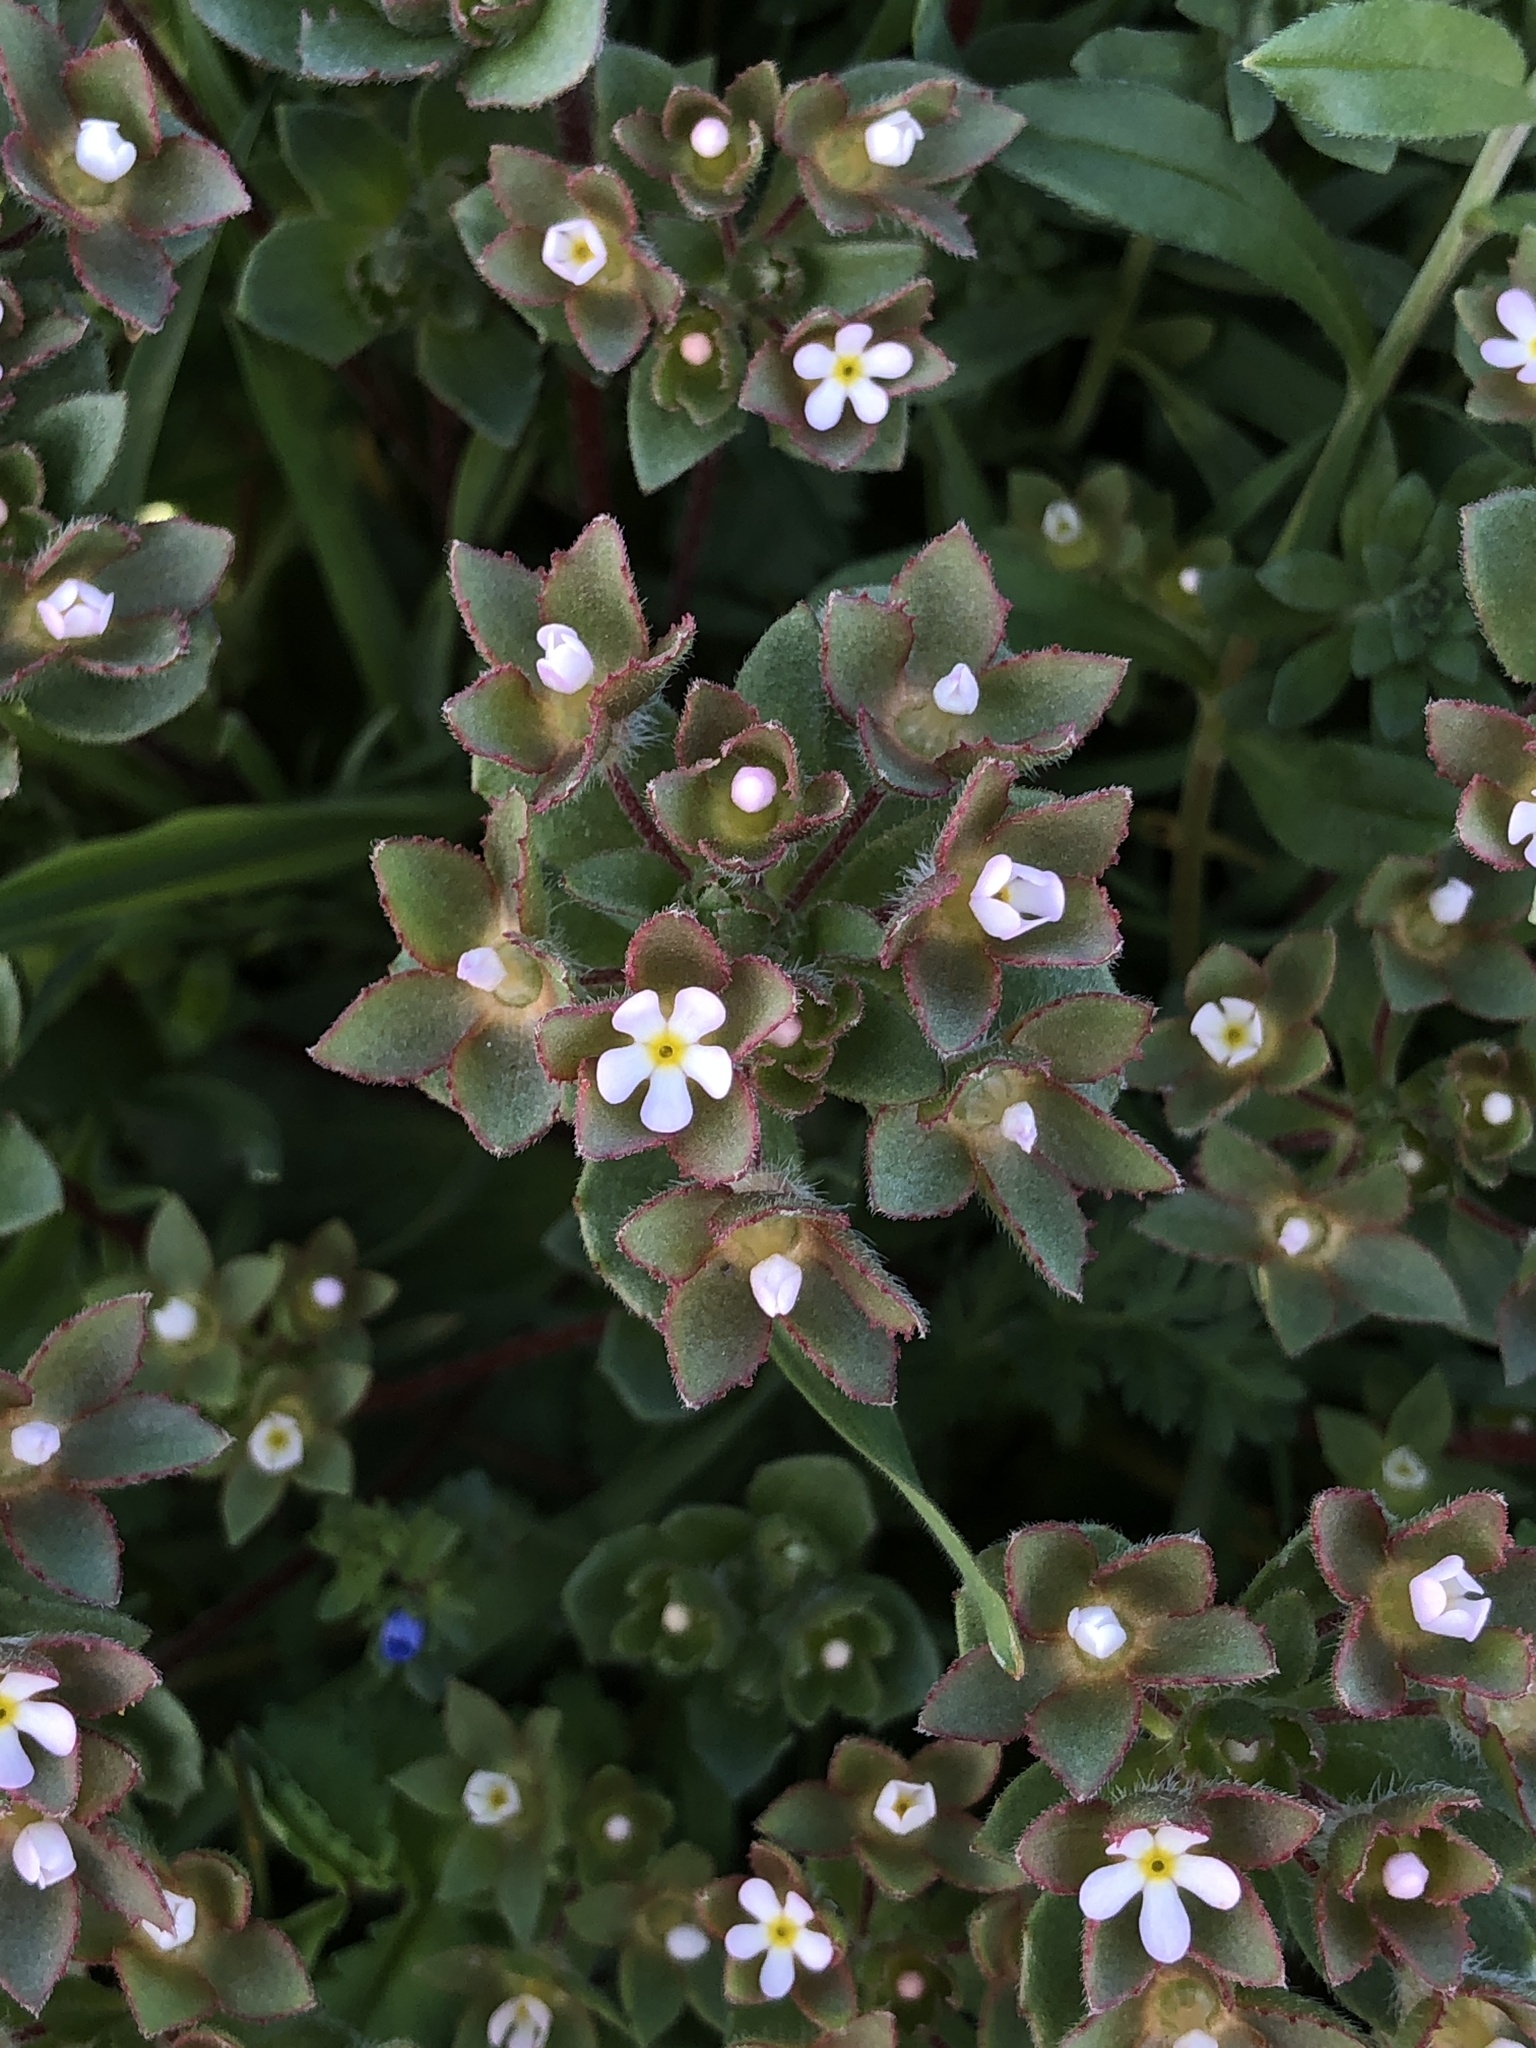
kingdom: Plantae
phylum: Tracheophyta
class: Magnoliopsida
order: Ericales
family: Primulaceae
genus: Androsace
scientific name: Androsace maxima
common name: Annual androsace
